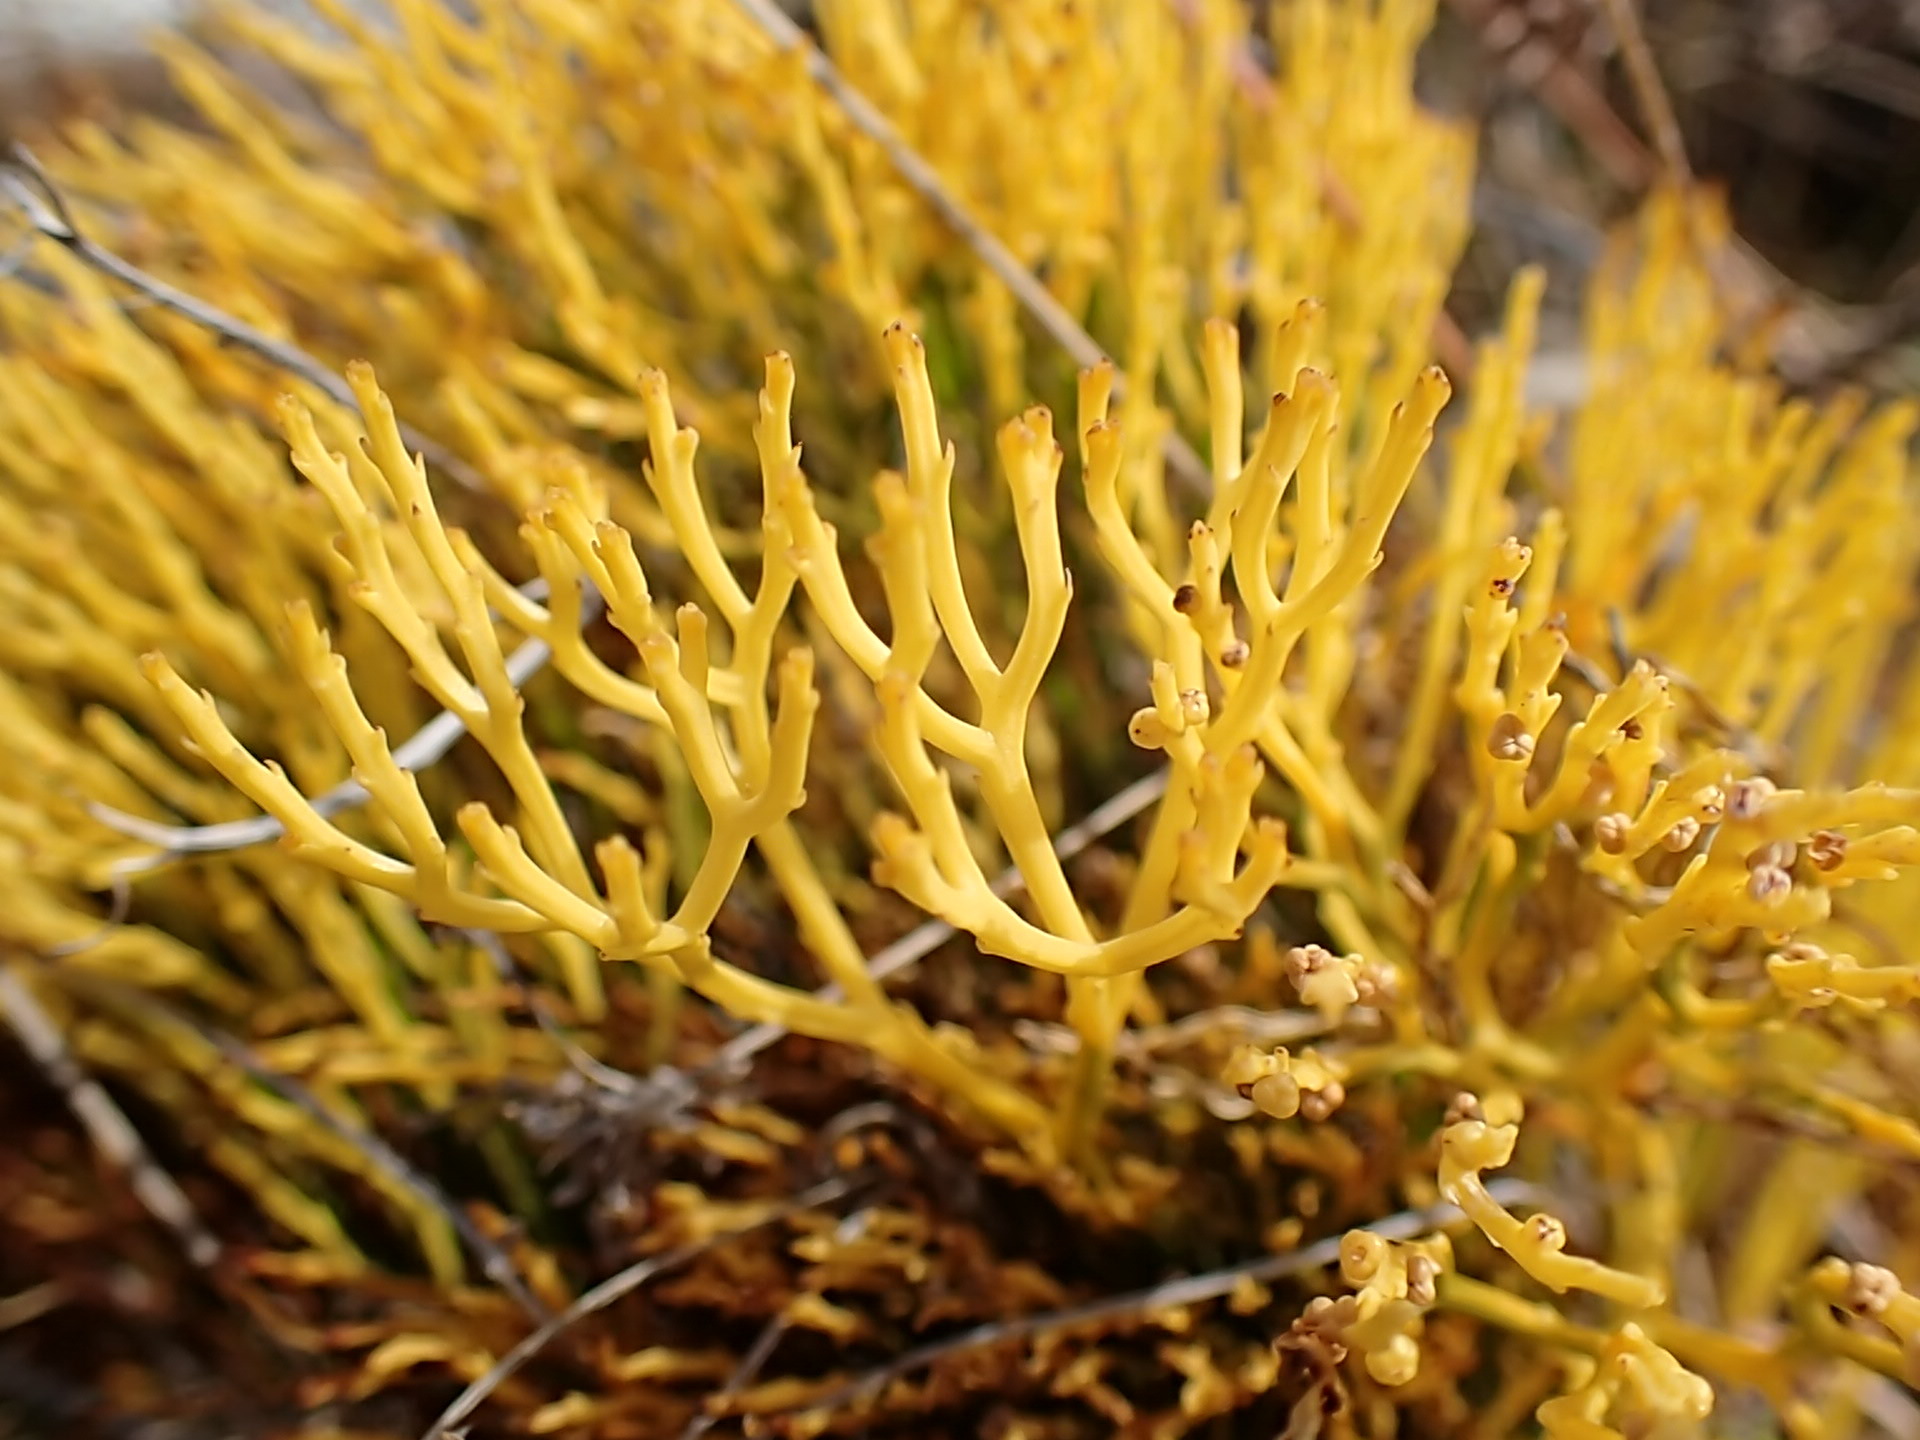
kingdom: Plantae
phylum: Tracheophyta
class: Polypodiopsida
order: Psilotales
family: Psilotaceae
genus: Psilotum
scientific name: Psilotum nudum
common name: Skeleton fork fern
